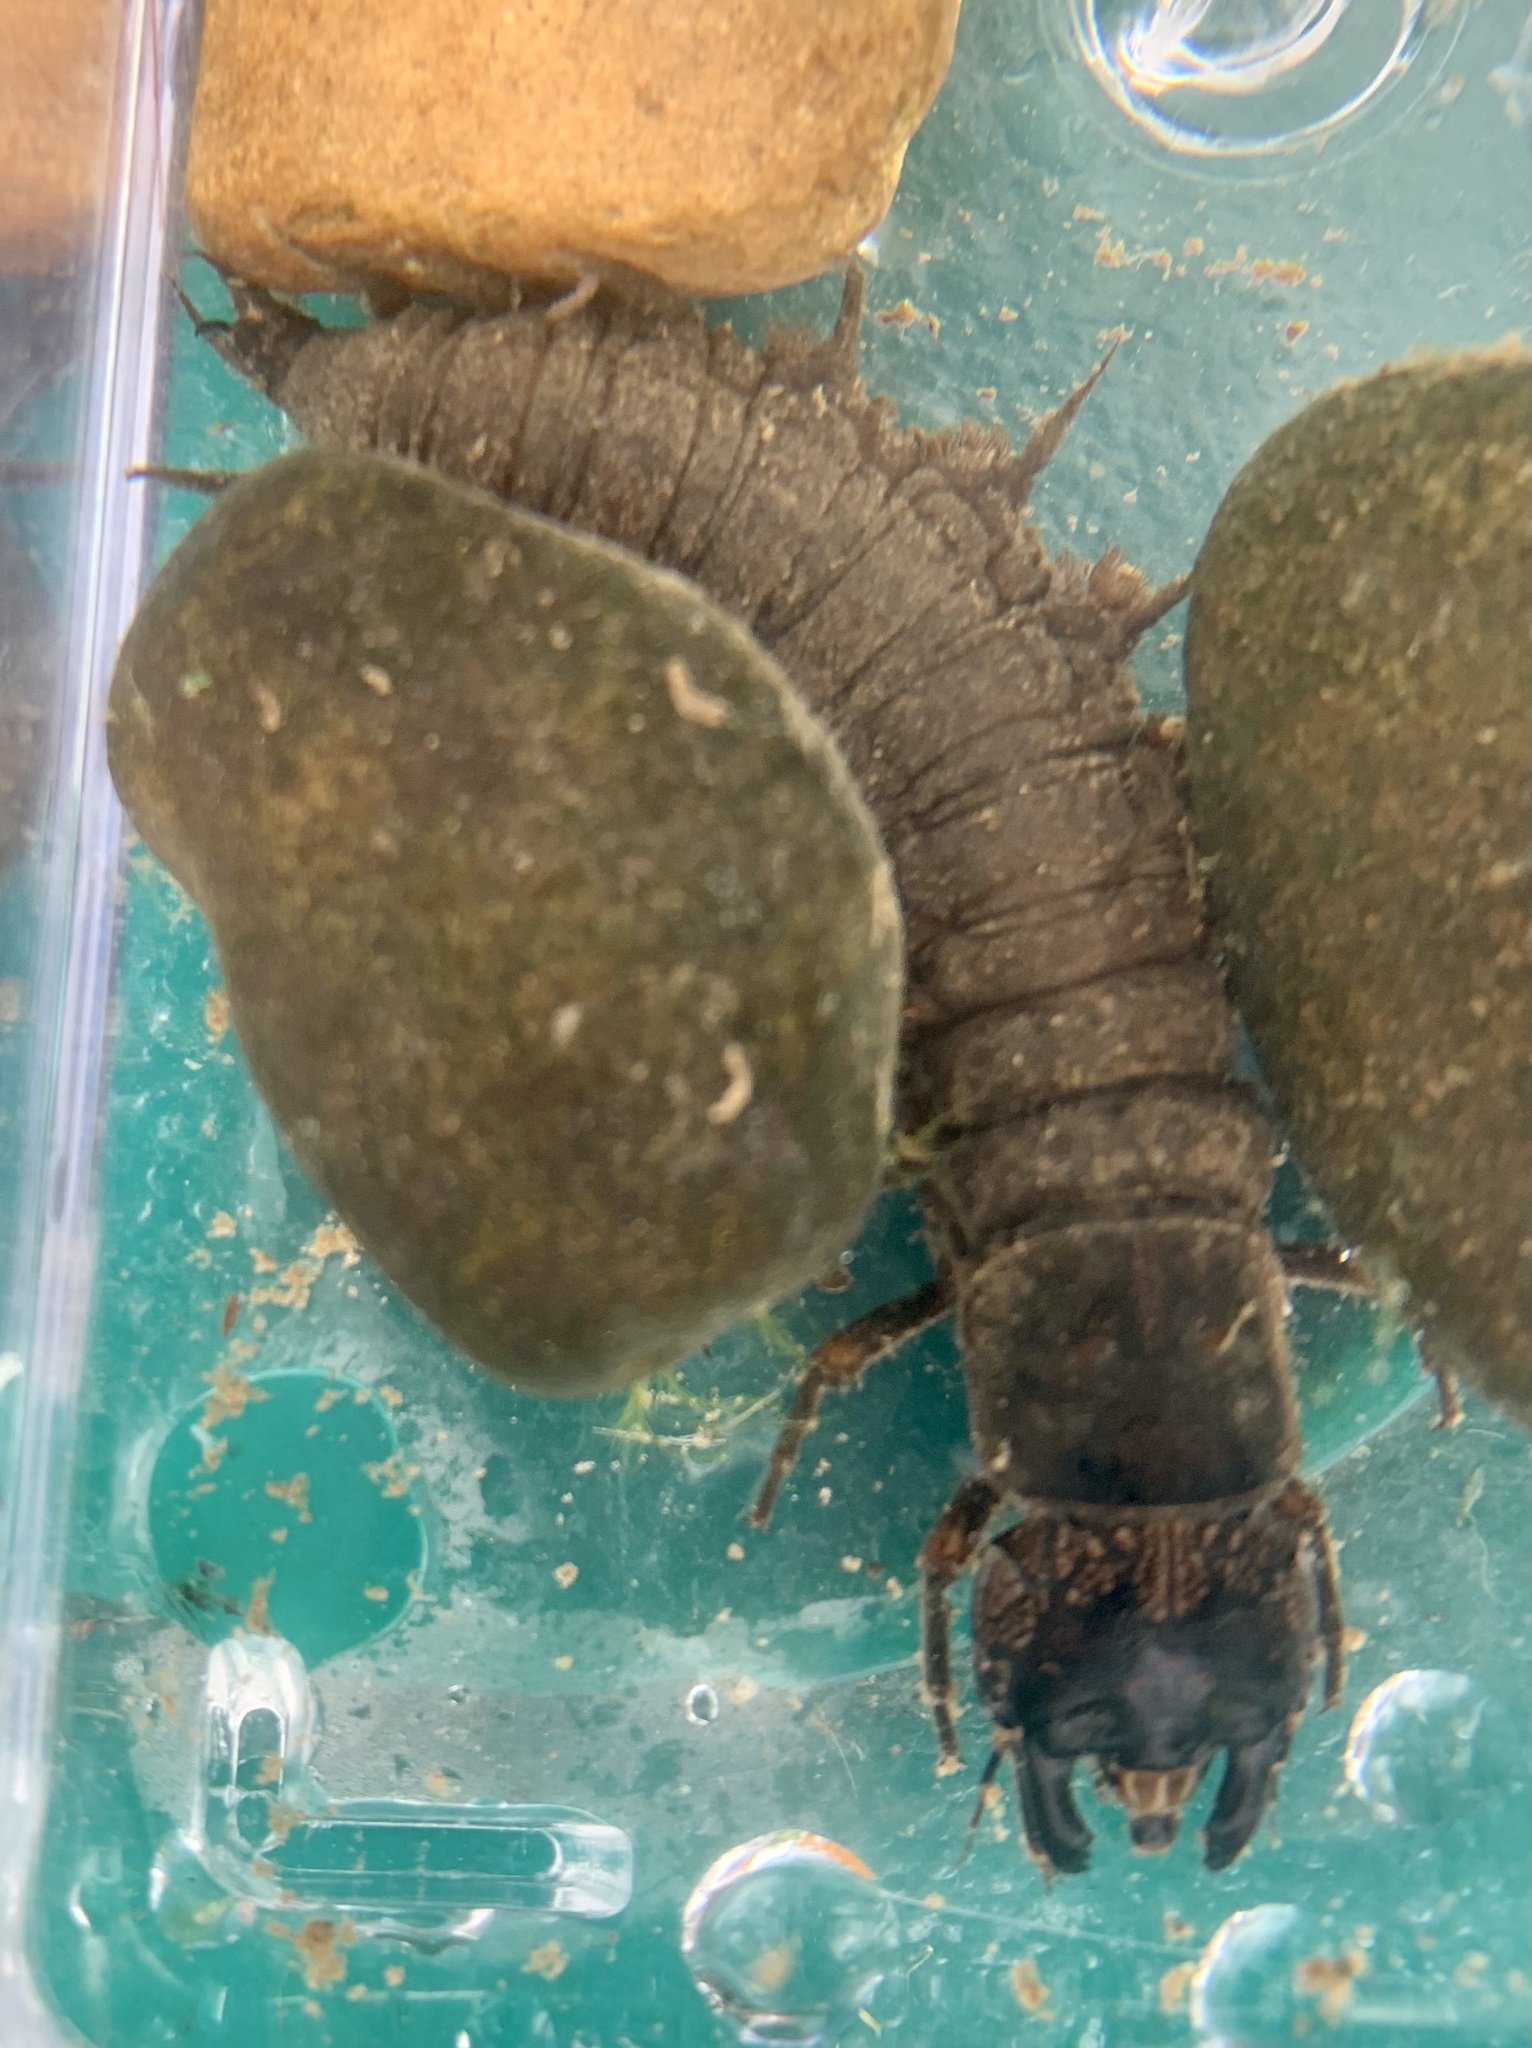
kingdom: Animalia
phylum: Arthropoda
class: Insecta
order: Megaloptera
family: Corydalidae
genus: Corydalus
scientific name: Corydalus cornutus
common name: Dobsonfly
